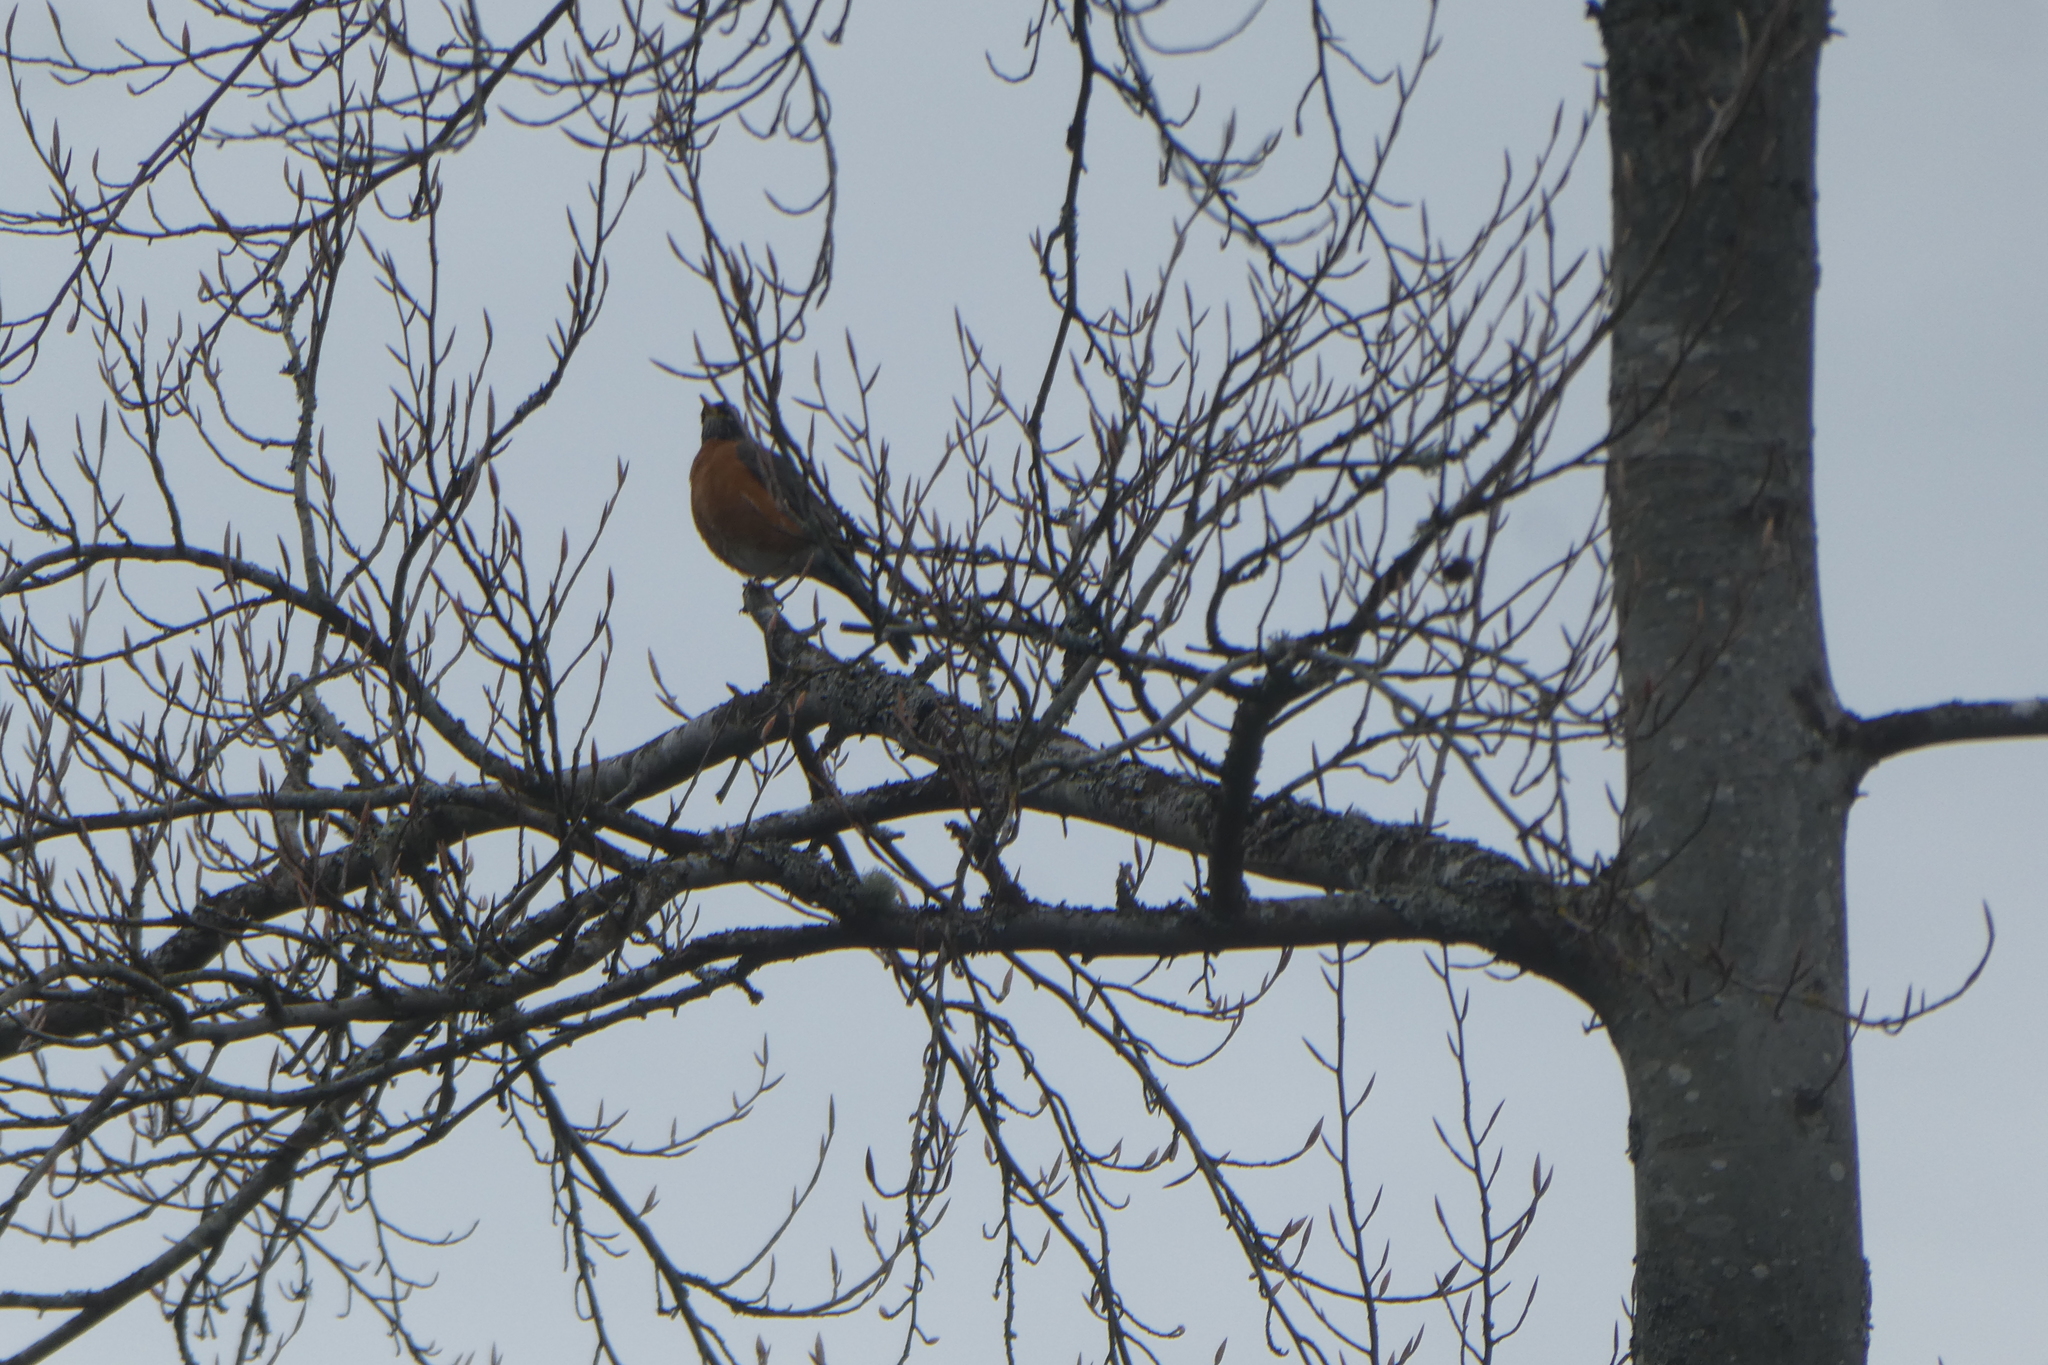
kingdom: Animalia
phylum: Chordata
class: Aves
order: Passeriformes
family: Turdidae
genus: Turdus
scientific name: Turdus migratorius
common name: American robin
